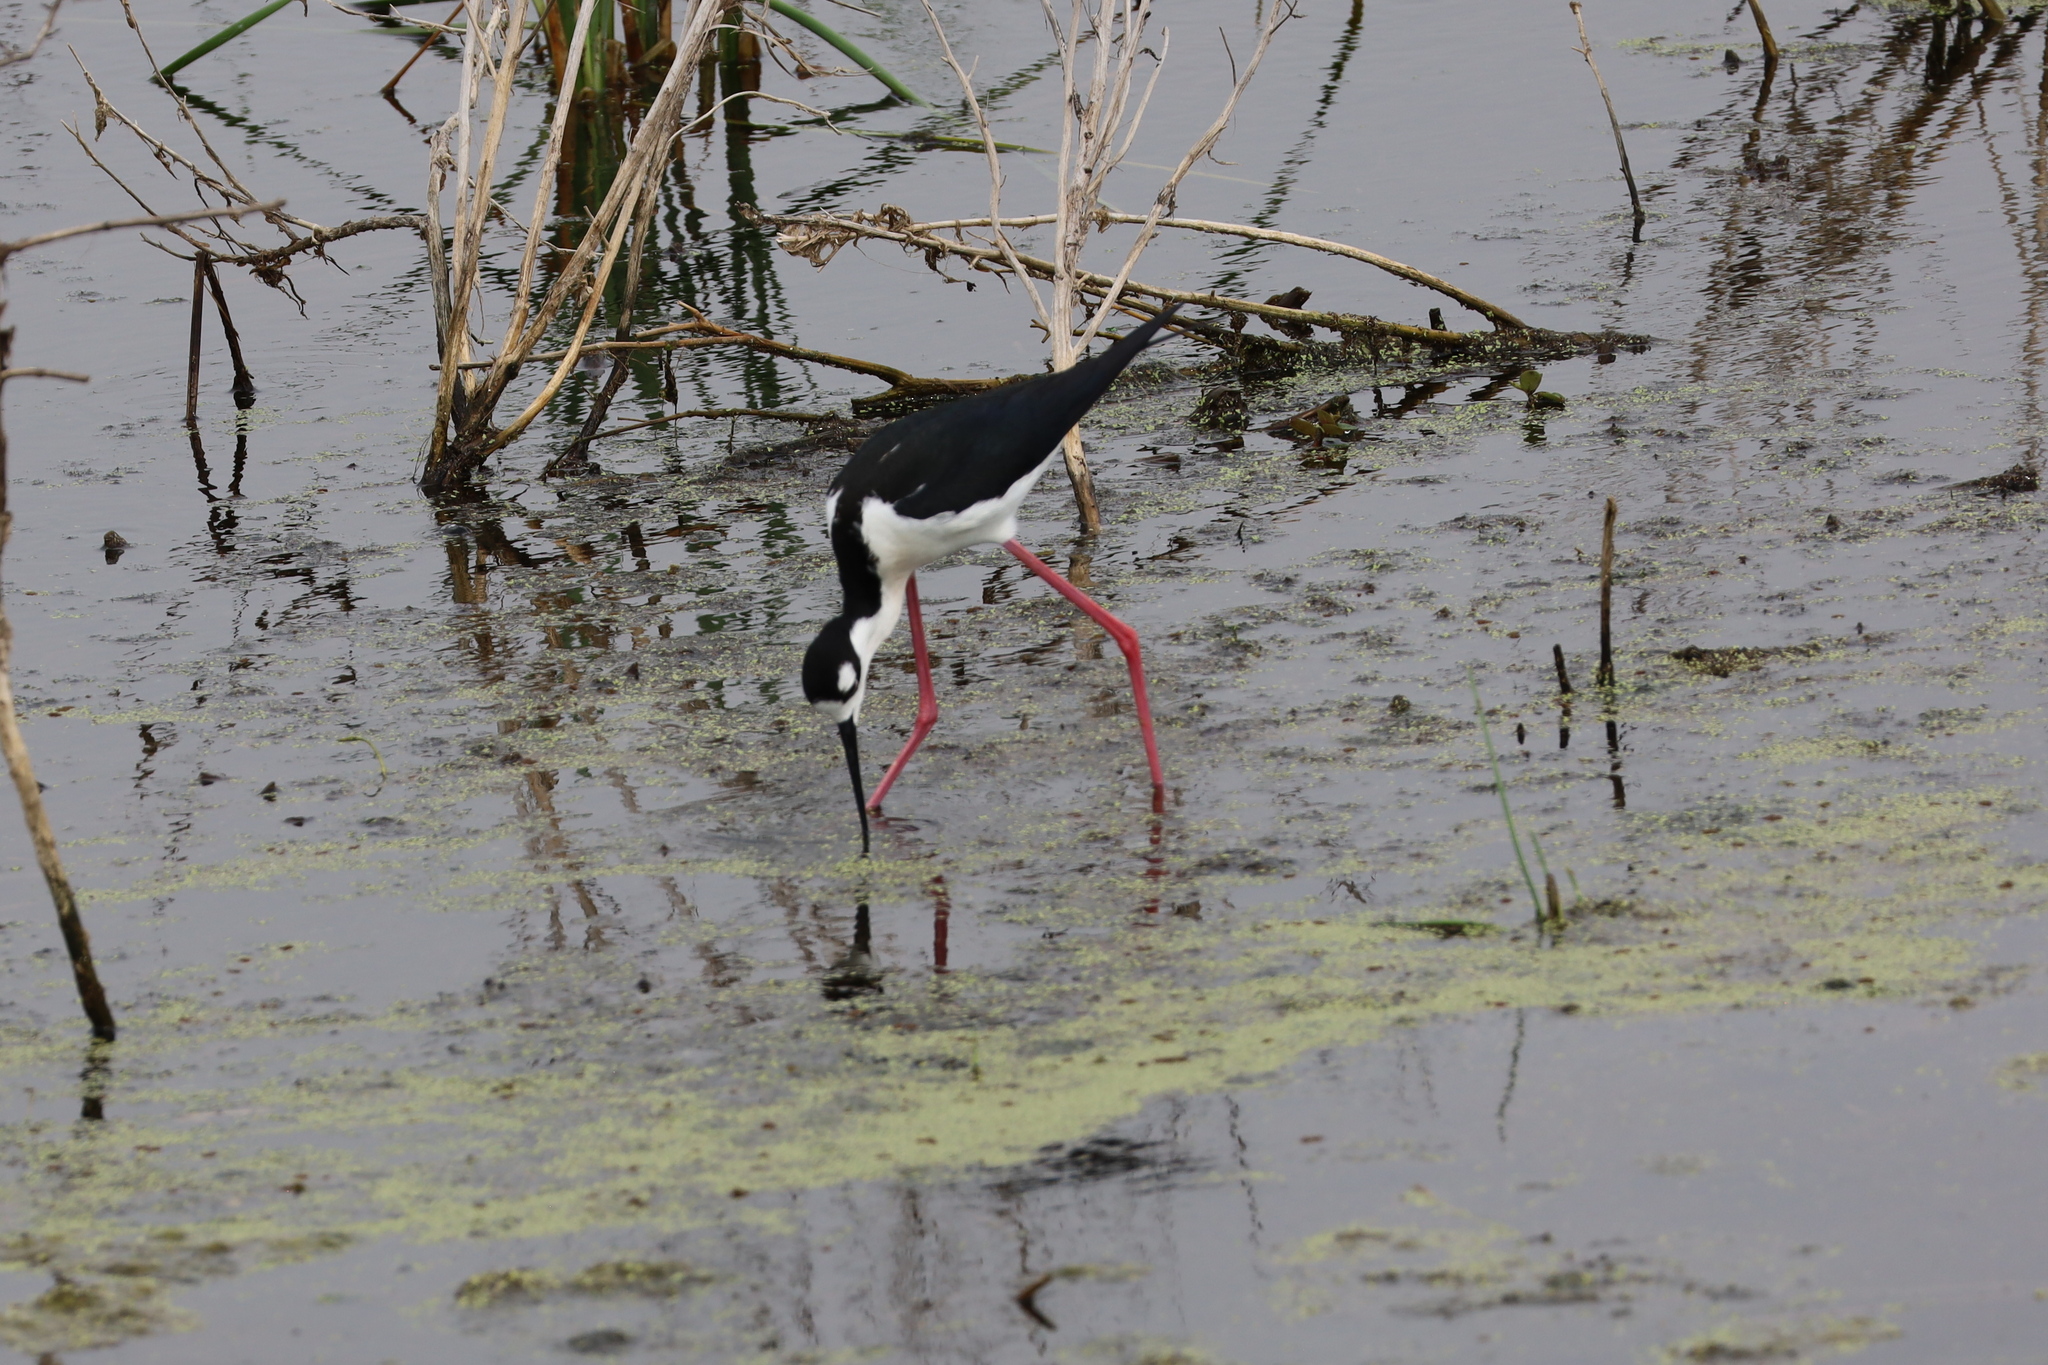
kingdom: Animalia
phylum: Chordata
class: Aves
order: Charadriiformes
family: Recurvirostridae
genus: Himantopus
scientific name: Himantopus mexicanus
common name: Black-necked stilt
